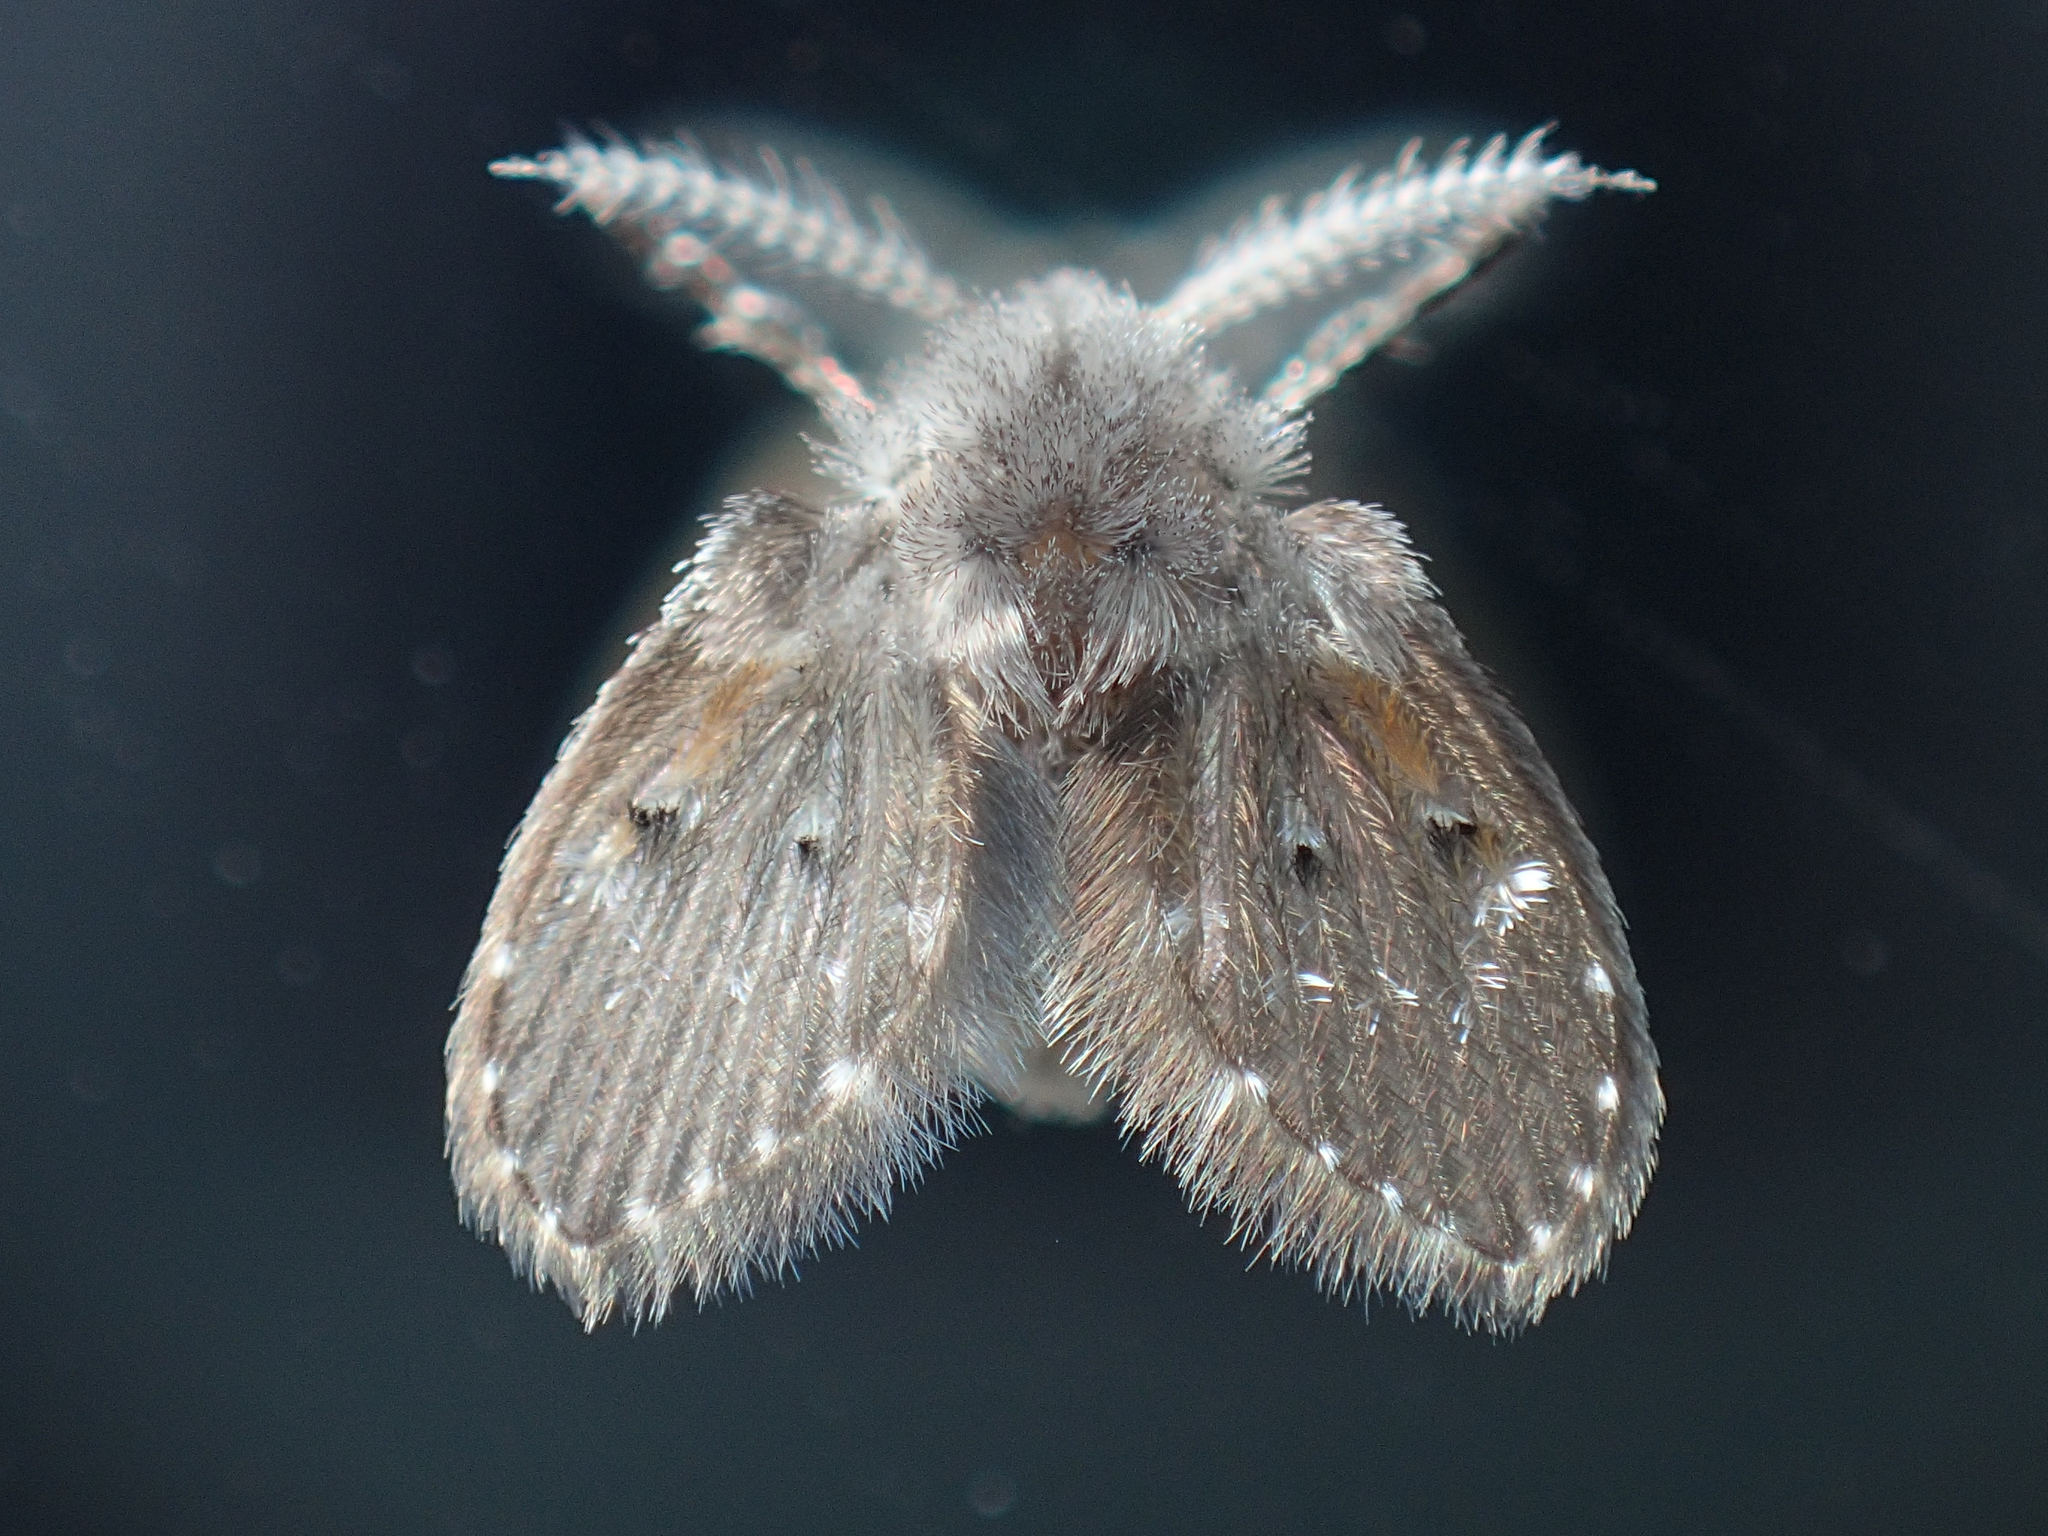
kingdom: Animalia
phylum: Arthropoda
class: Insecta
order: Diptera
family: Psychodidae
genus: Clogmia
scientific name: Clogmia albipunctatus
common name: White-spotted moth fly
